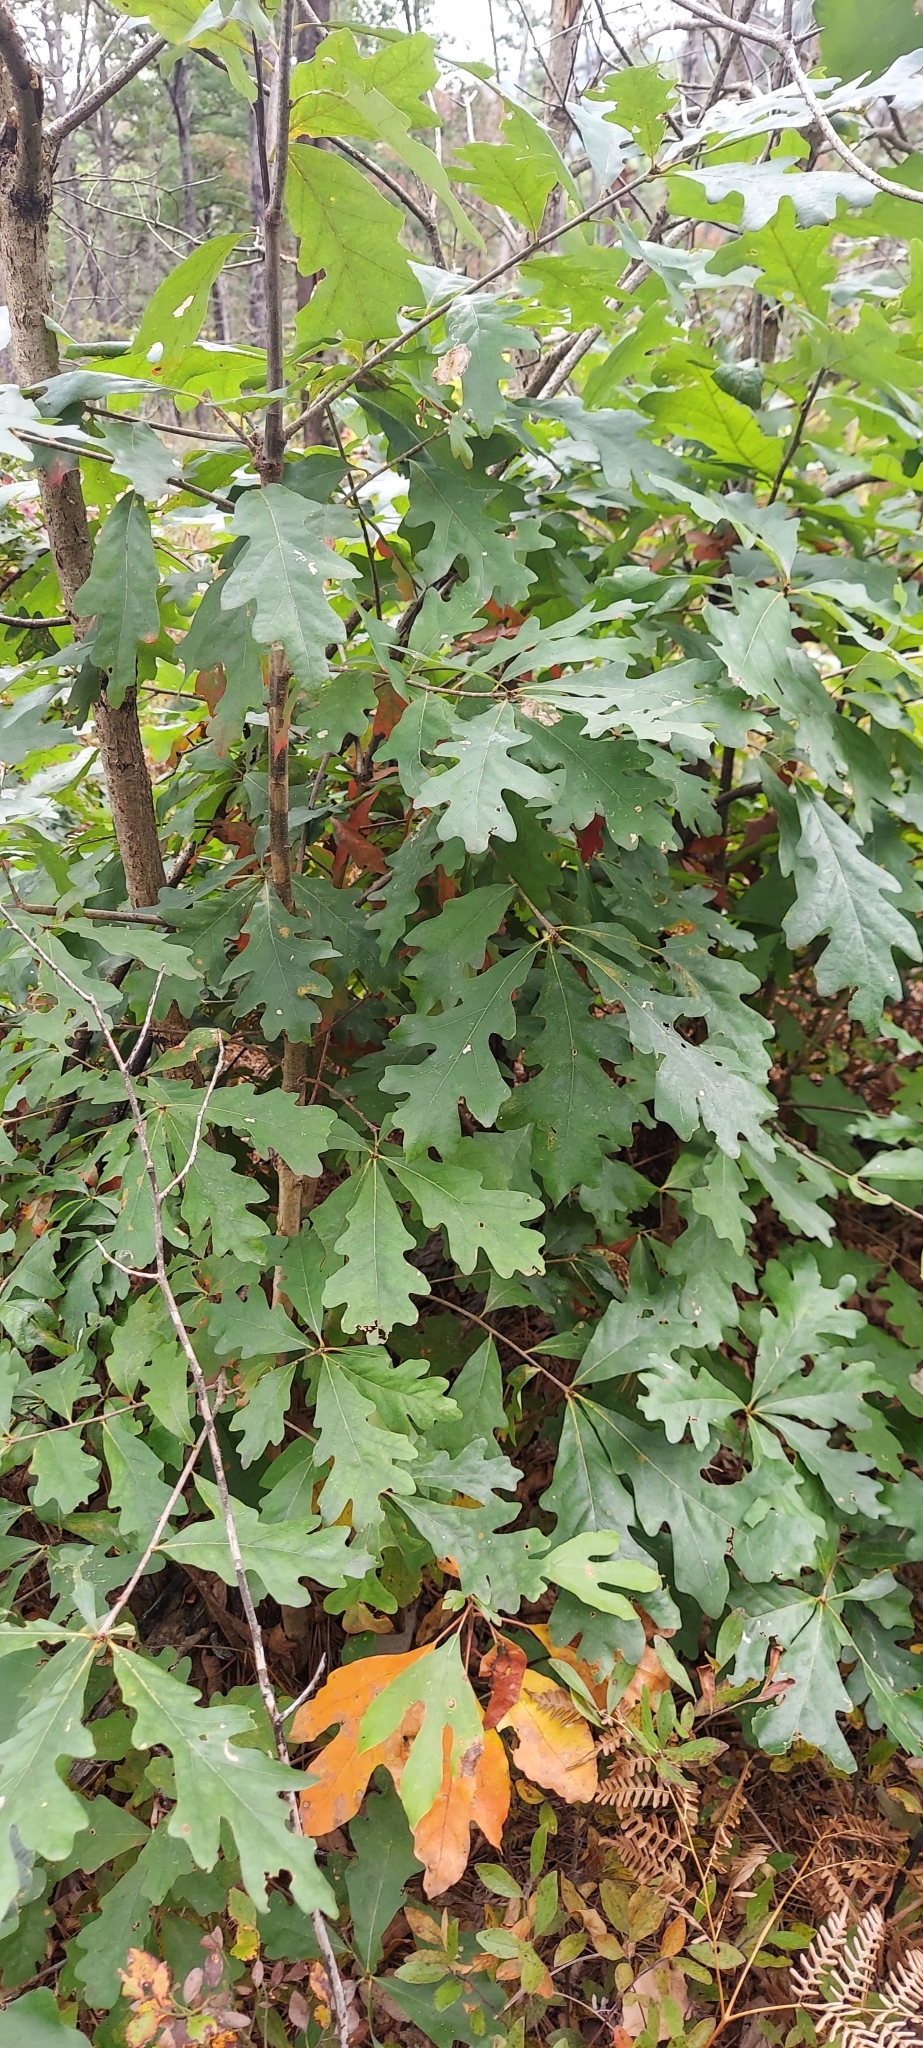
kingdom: Plantae
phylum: Tracheophyta
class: Magnoliopsida
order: Fagales
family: Fagaceae
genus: Quercus
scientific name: Quercus alba
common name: White oak
